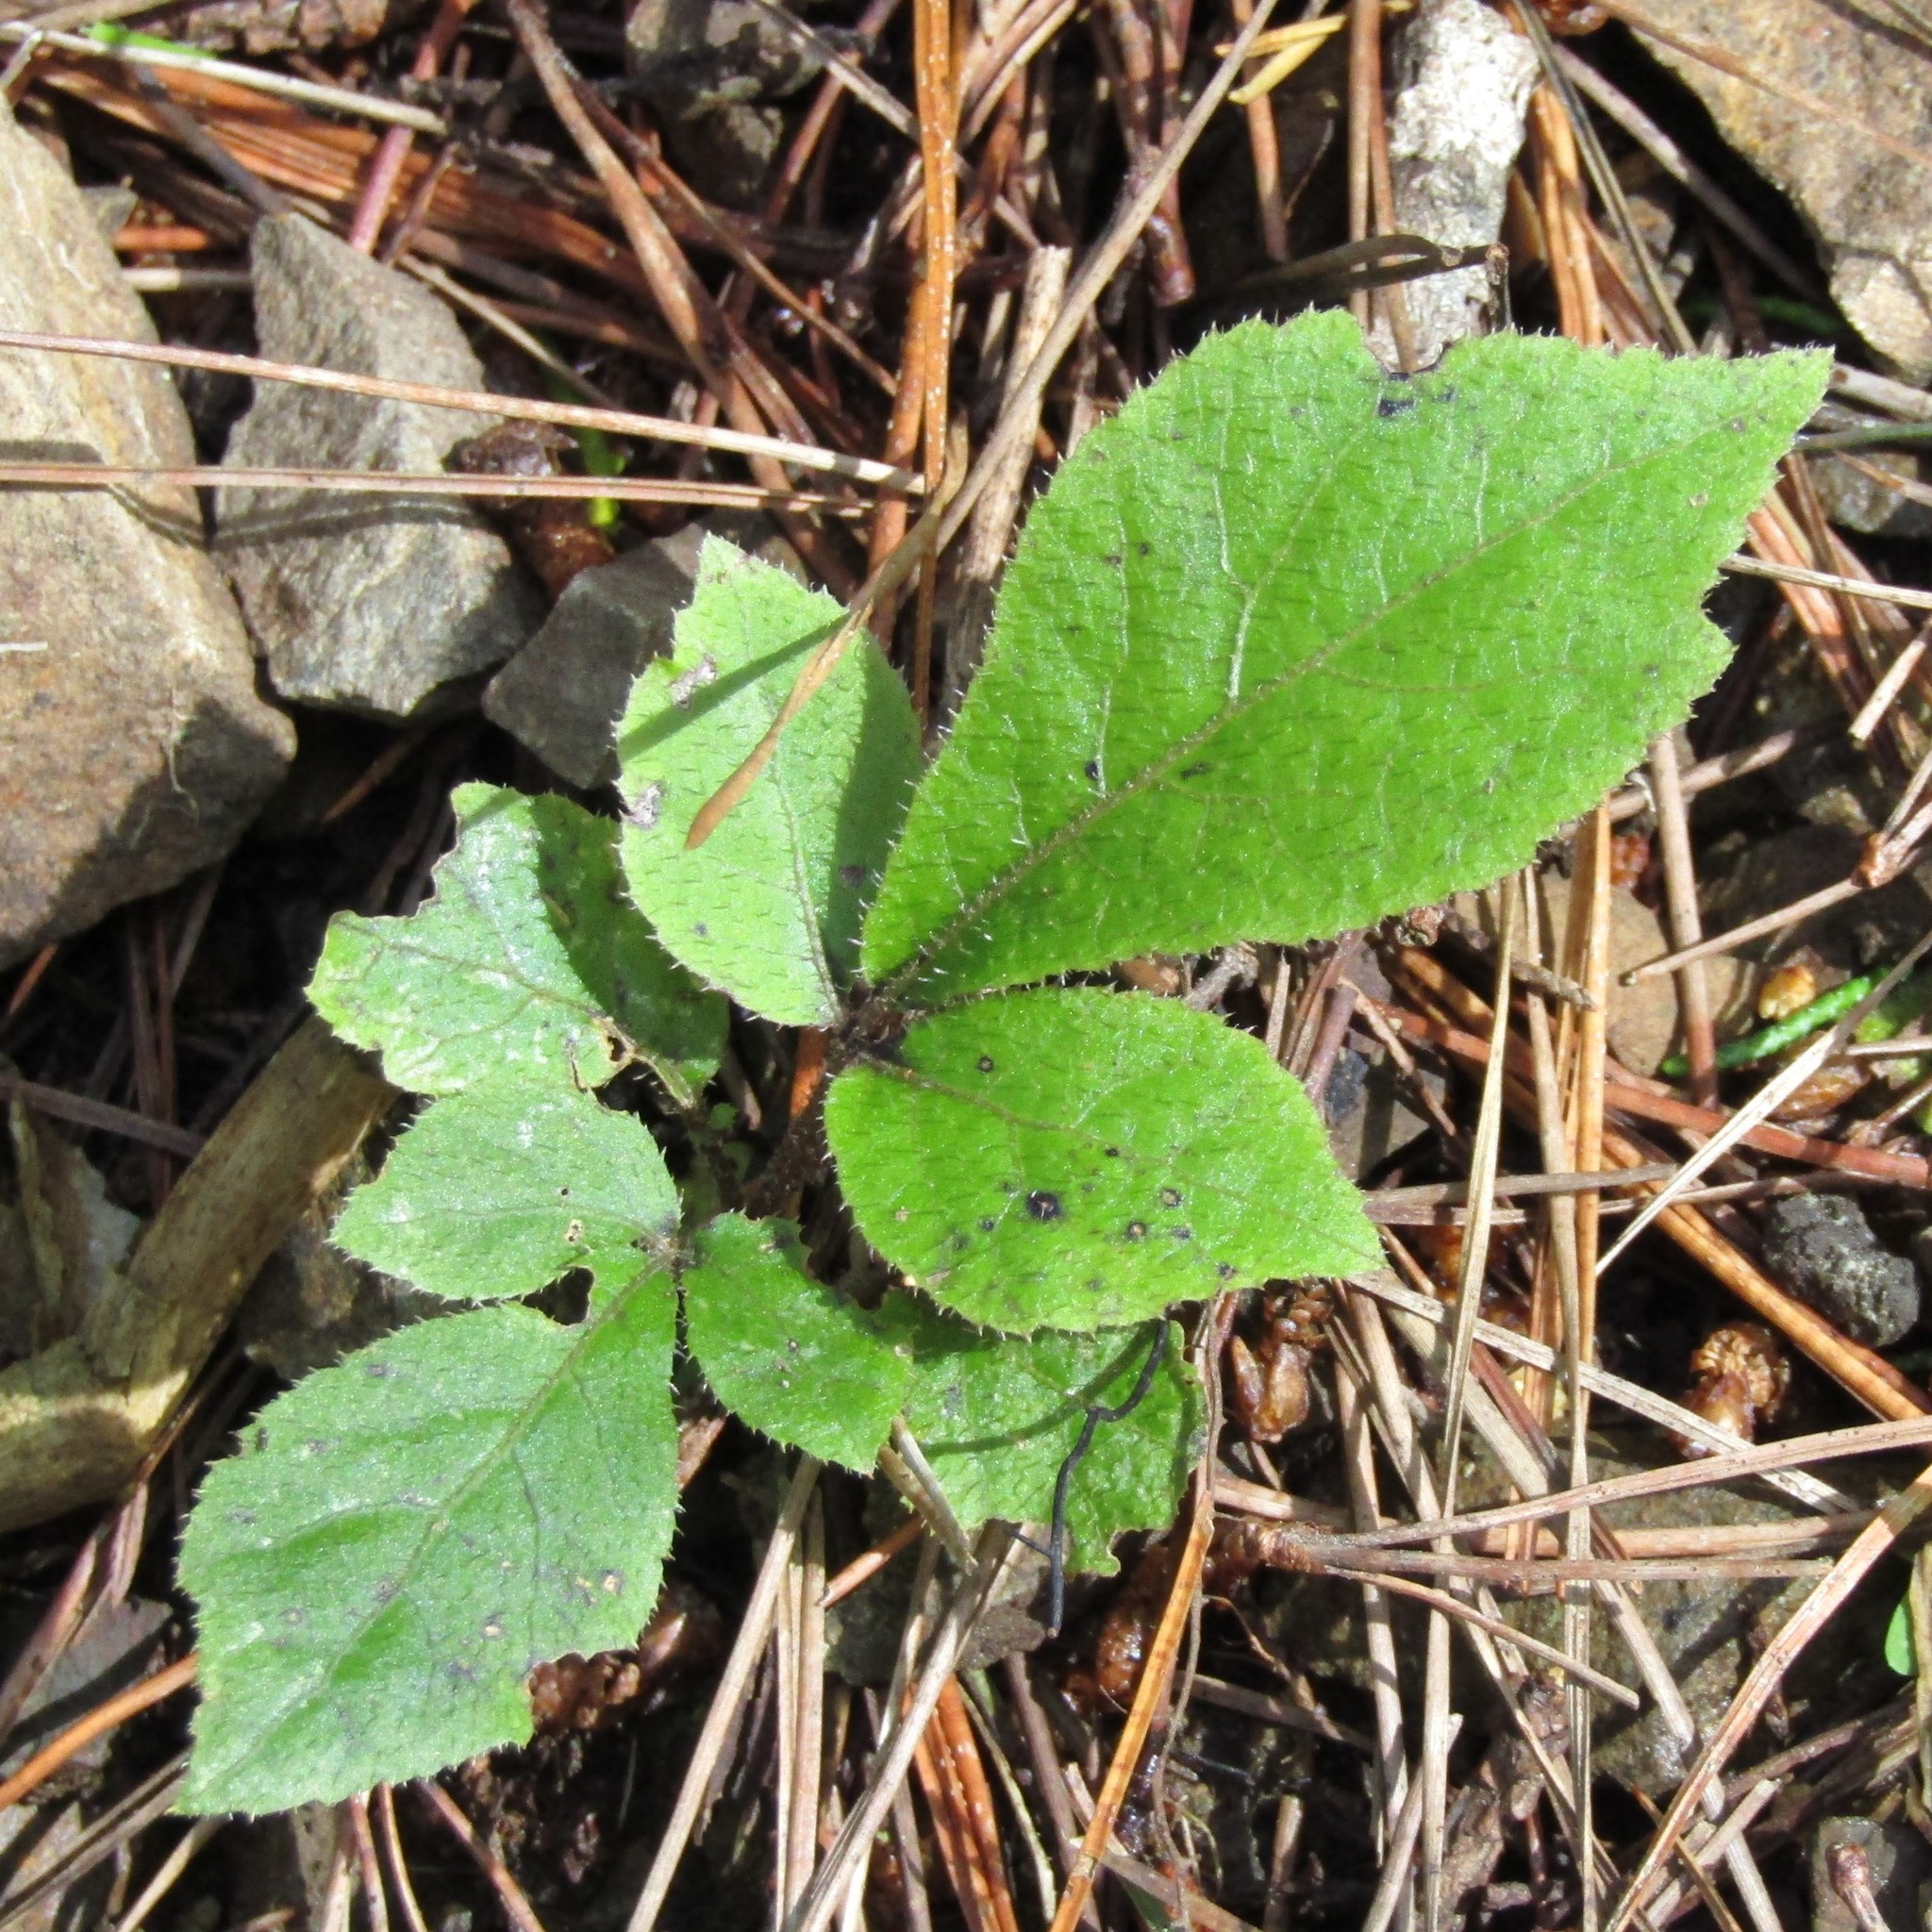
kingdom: Plantae
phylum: Tracheophyta
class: Magnoliopsida
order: Apiales
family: Araliaceae
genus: Schefflera
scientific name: Schefflera digitata
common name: Pate
